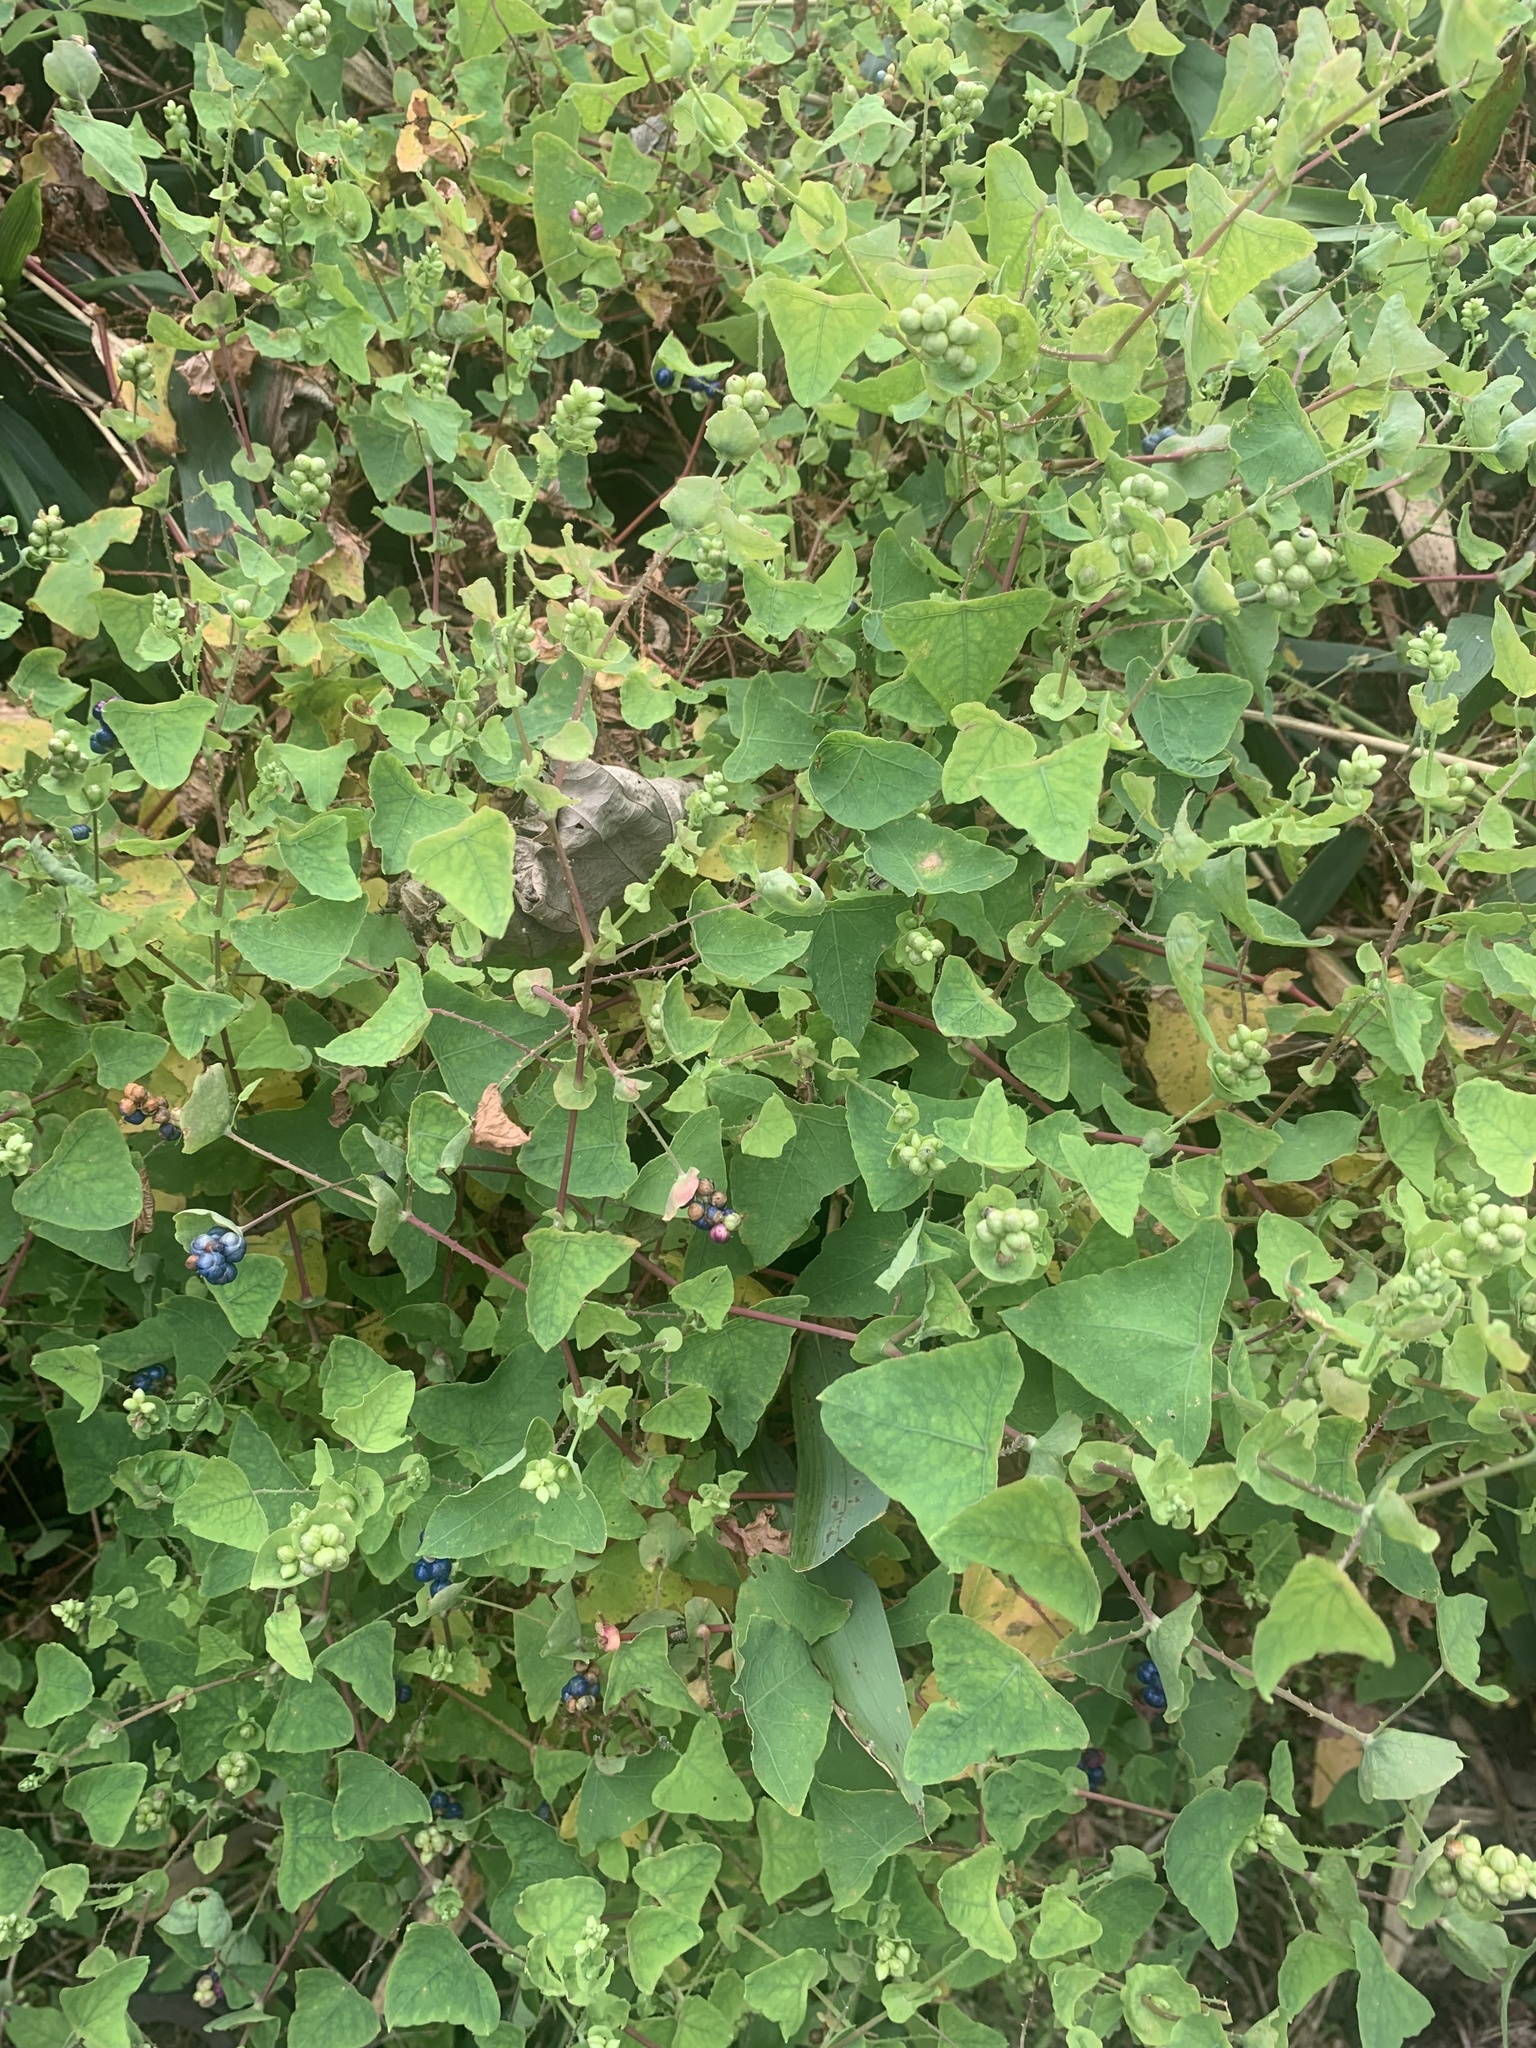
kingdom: Plantae
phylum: Tracheophyta
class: Magnoliopsida
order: Caryophyllales
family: Polygonaceae
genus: Persicaria
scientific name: Persicaria perfoliata
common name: Asiatic tearthumb
